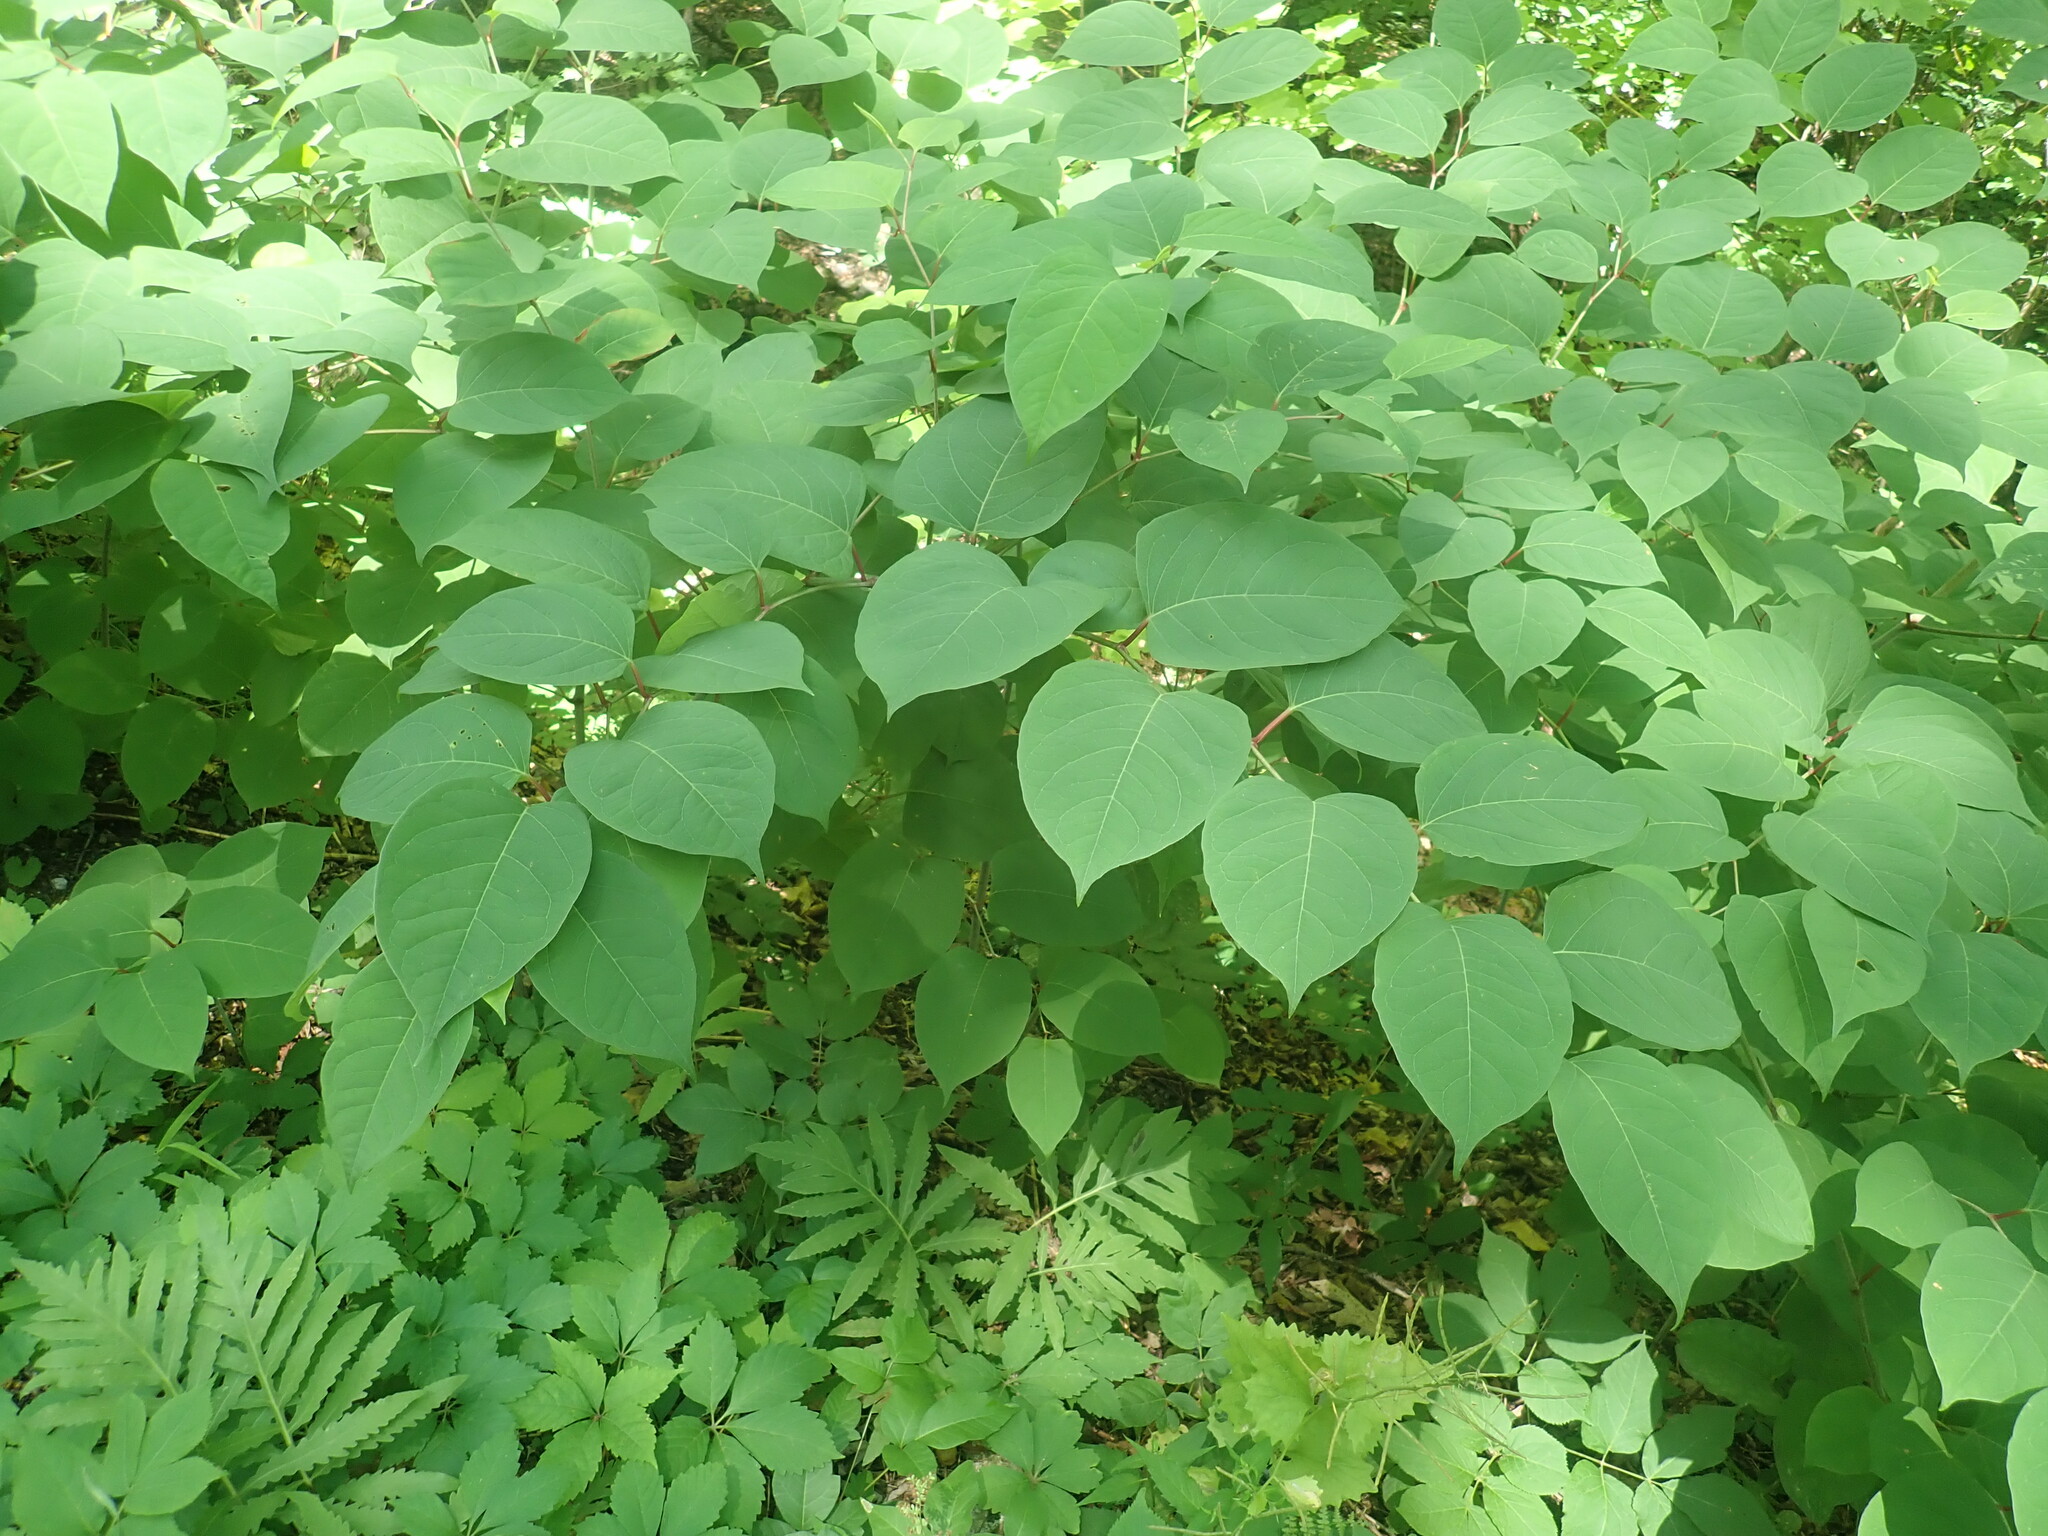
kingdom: Plantae
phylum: Tracheophyta
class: Magnoliopsida
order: Caryophyllales
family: Polygonaceae
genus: Reynoutria
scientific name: Reynoutria japonica
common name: Japanese knotweed
